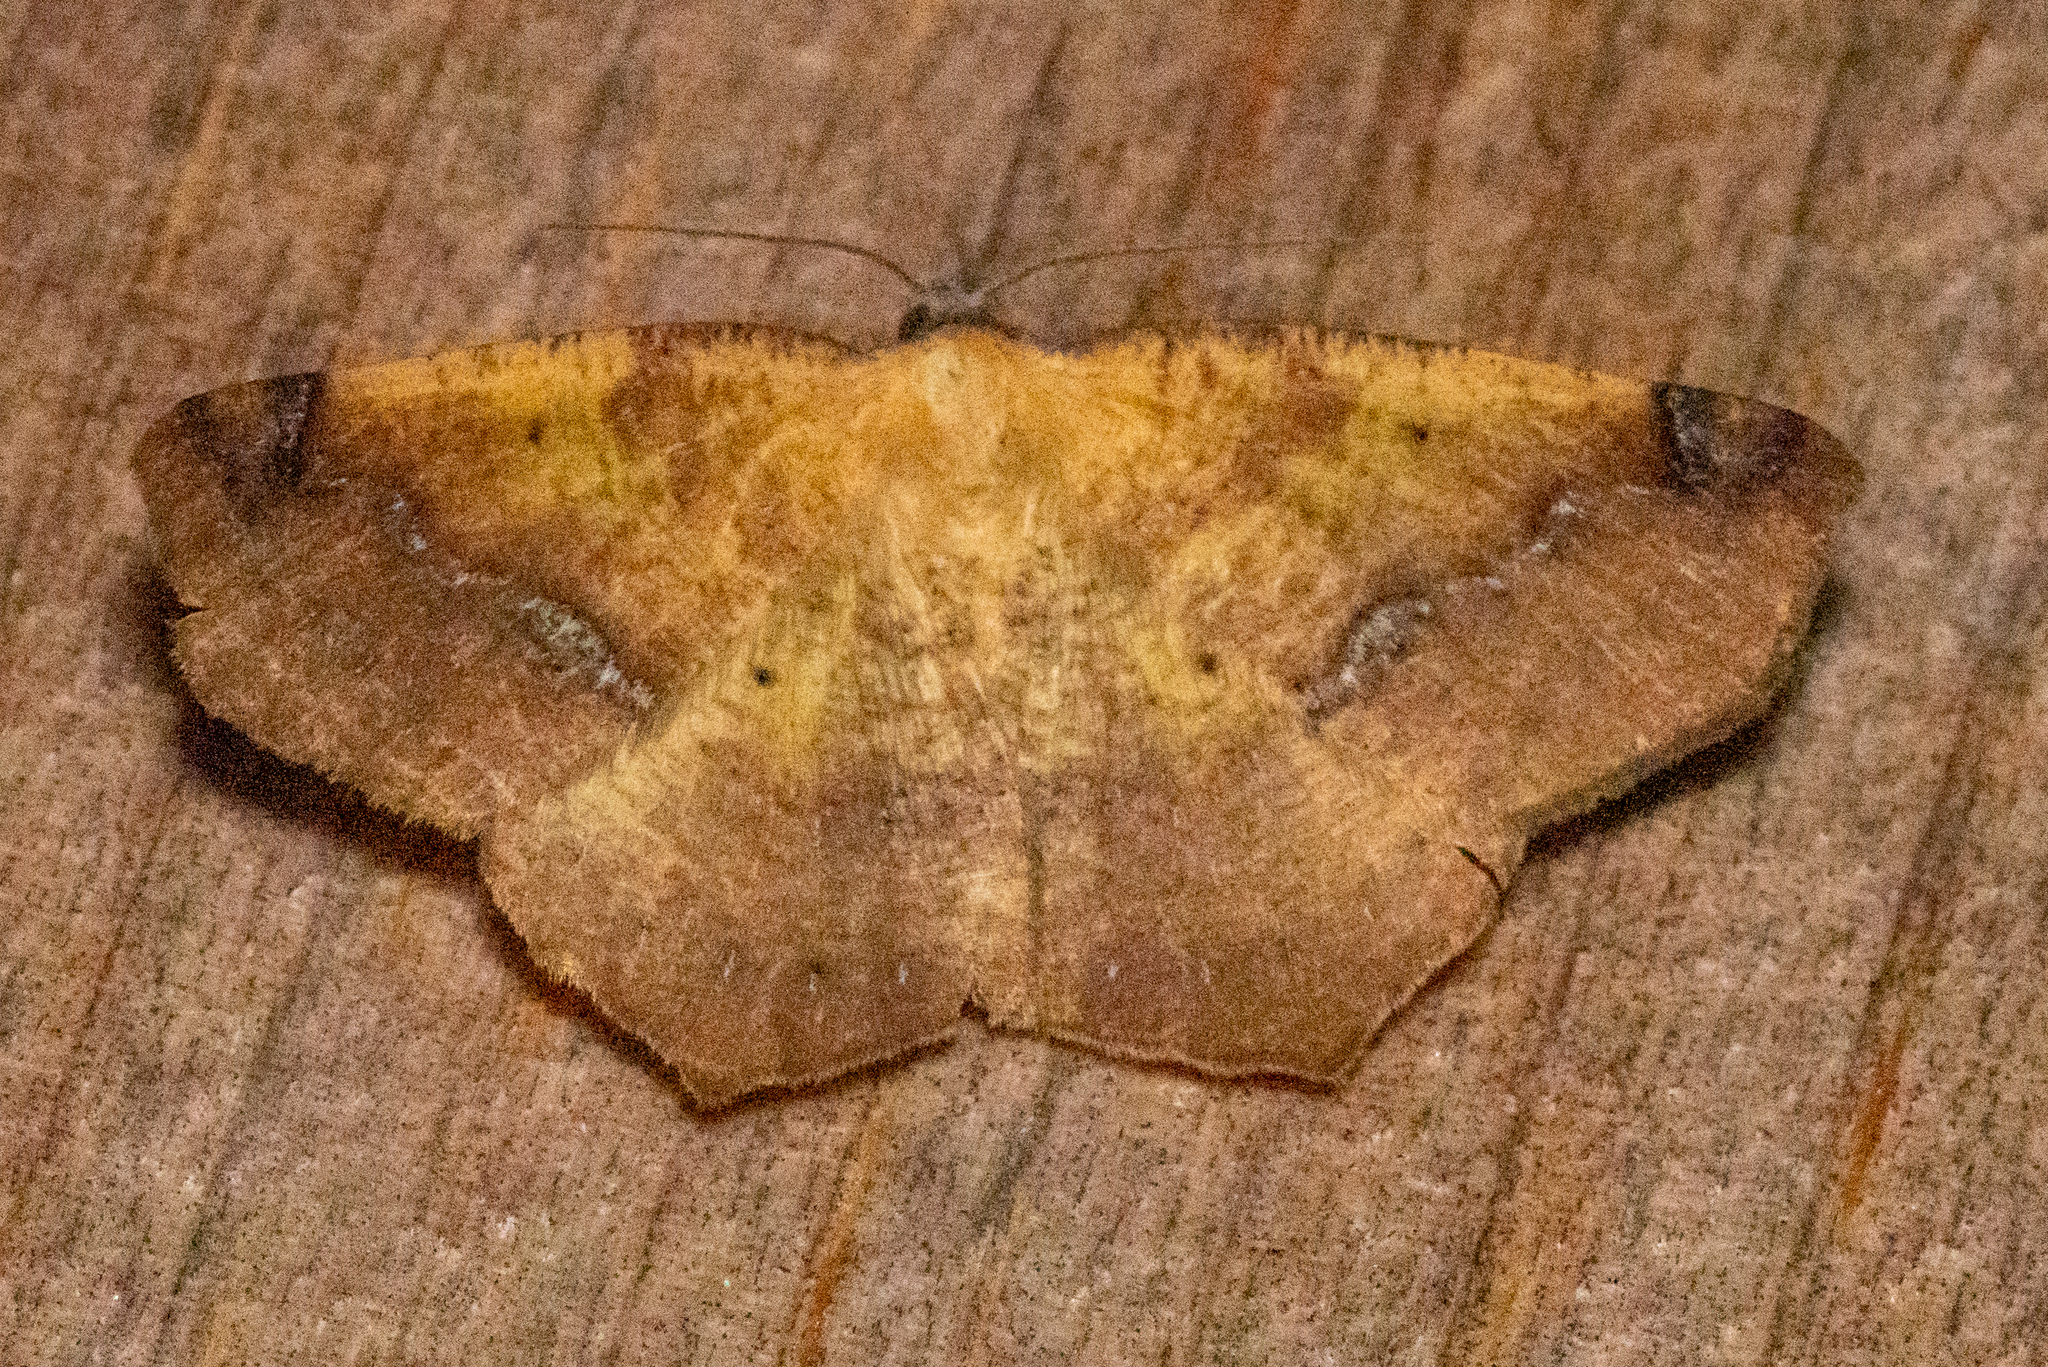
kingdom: Animalia
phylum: Arthropoda
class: Insecta
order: Lepidoptera
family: Geometridae
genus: Antepione
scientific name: Antepione thisoaria
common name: Variable antipione
